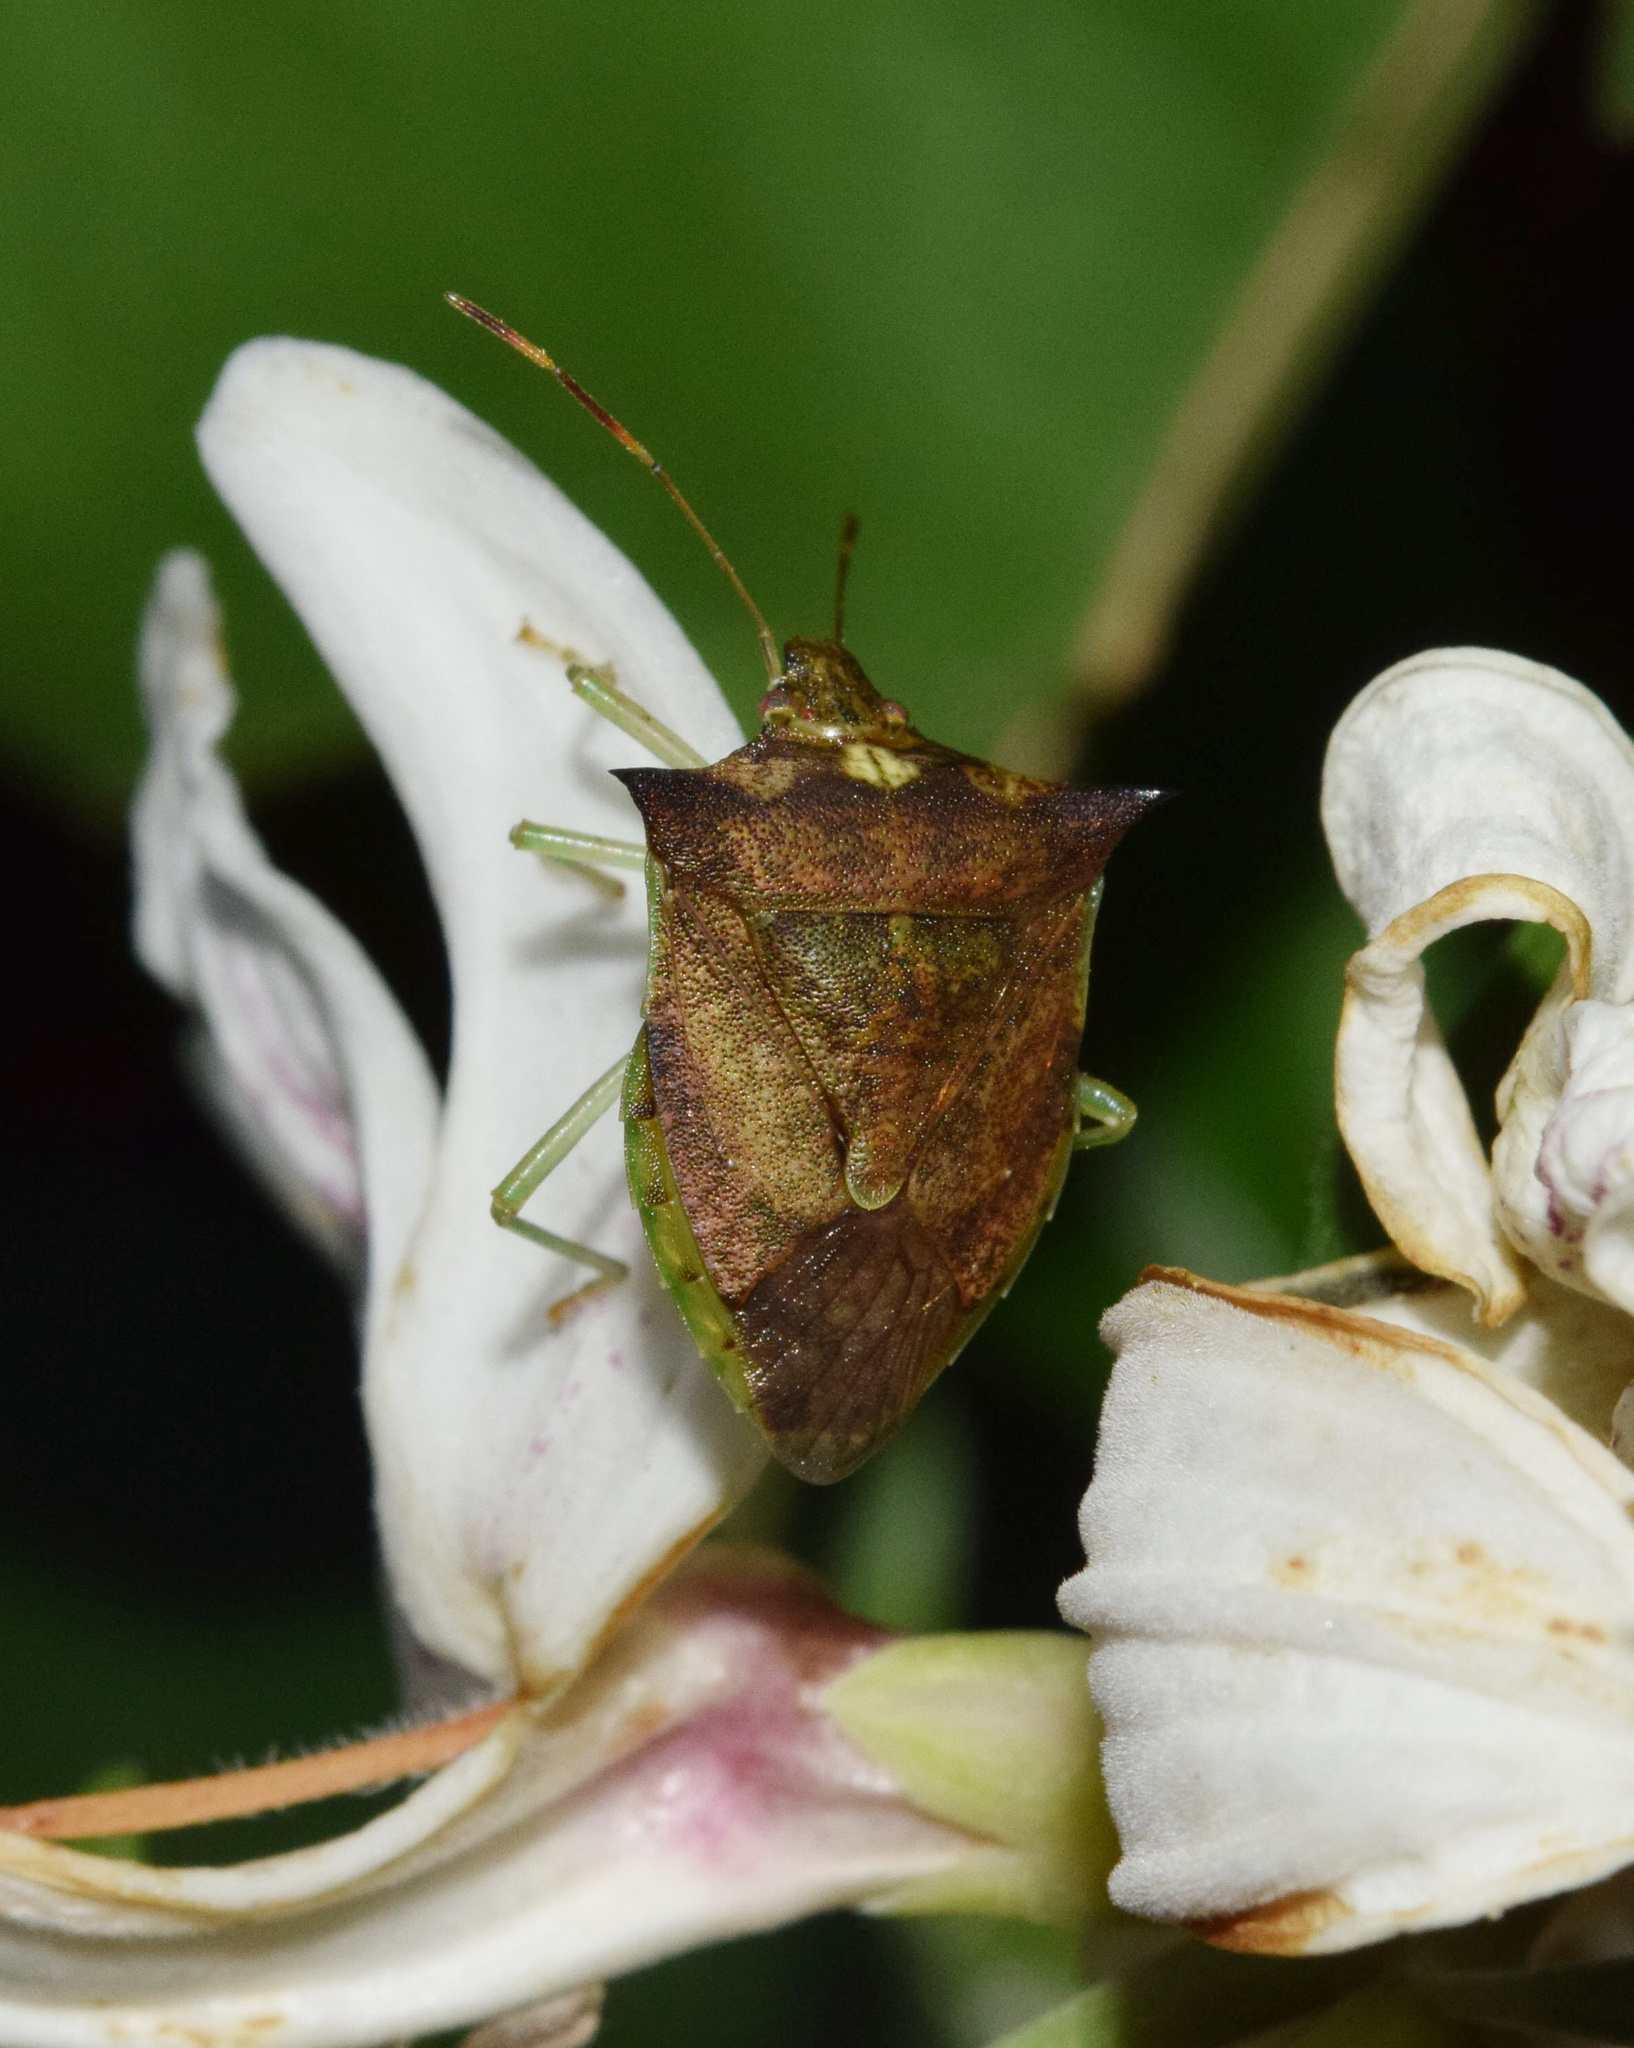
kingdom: Animalia
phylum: Arthropoda
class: Insecta
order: Hemiptera
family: Tropiduchidae
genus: Lerida
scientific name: Lerida
